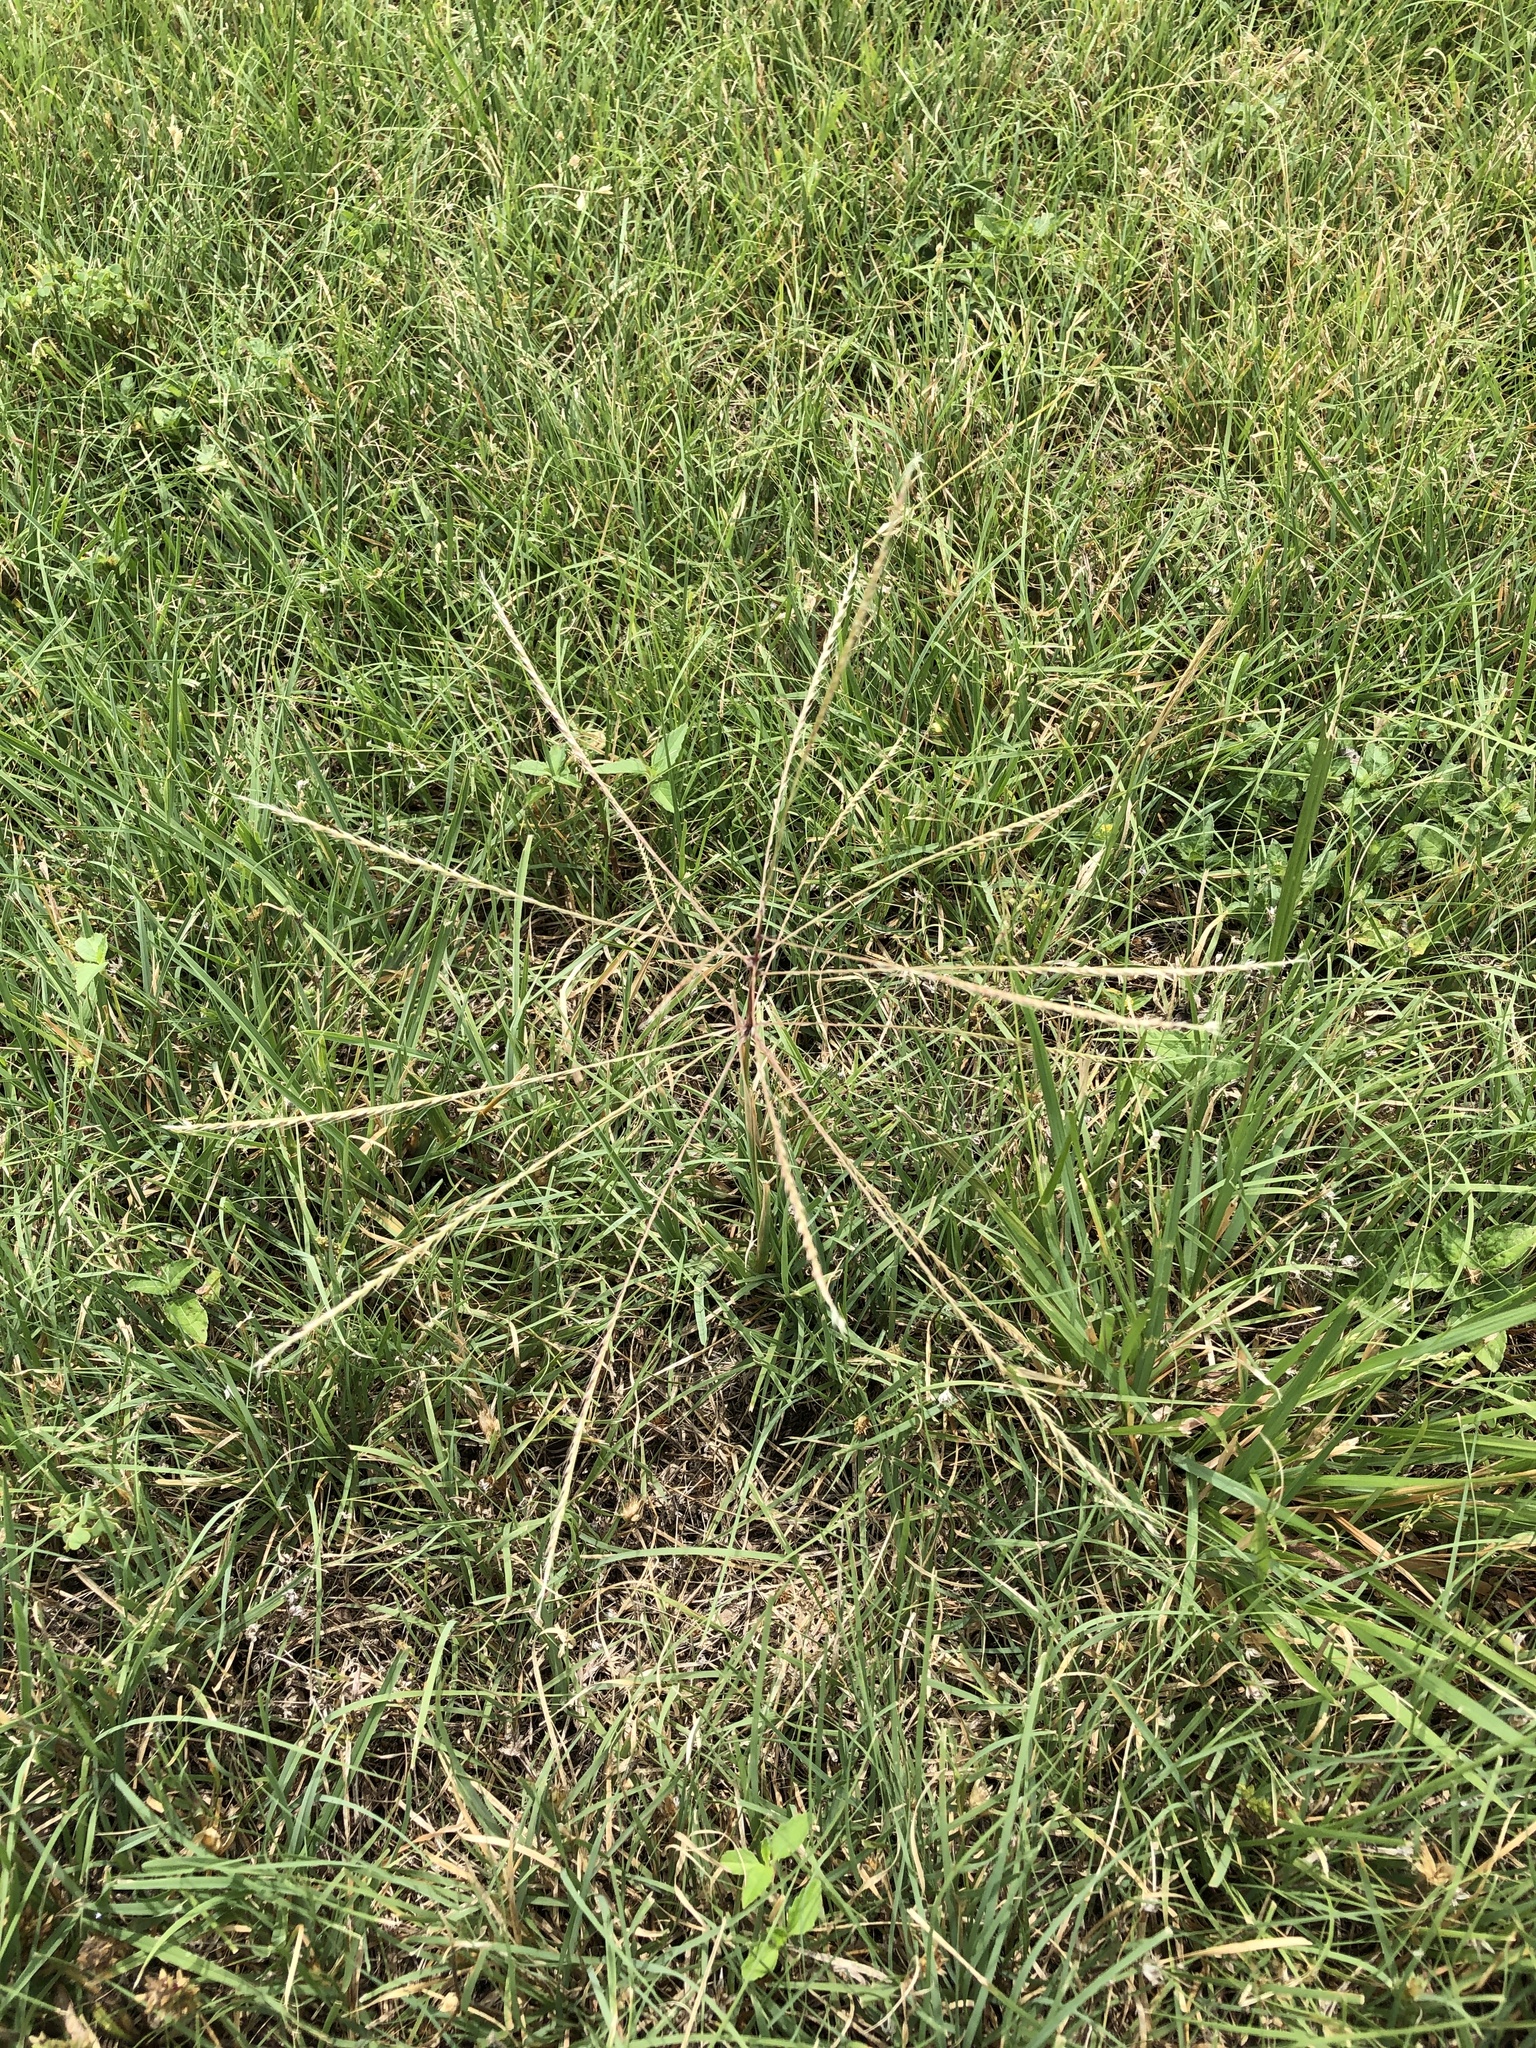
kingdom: Plantae
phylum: Tracheophyta
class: Liliopsida
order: Poales
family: Poaceae
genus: Chloris
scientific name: Chloris verticillata
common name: Tumble windmill grass
